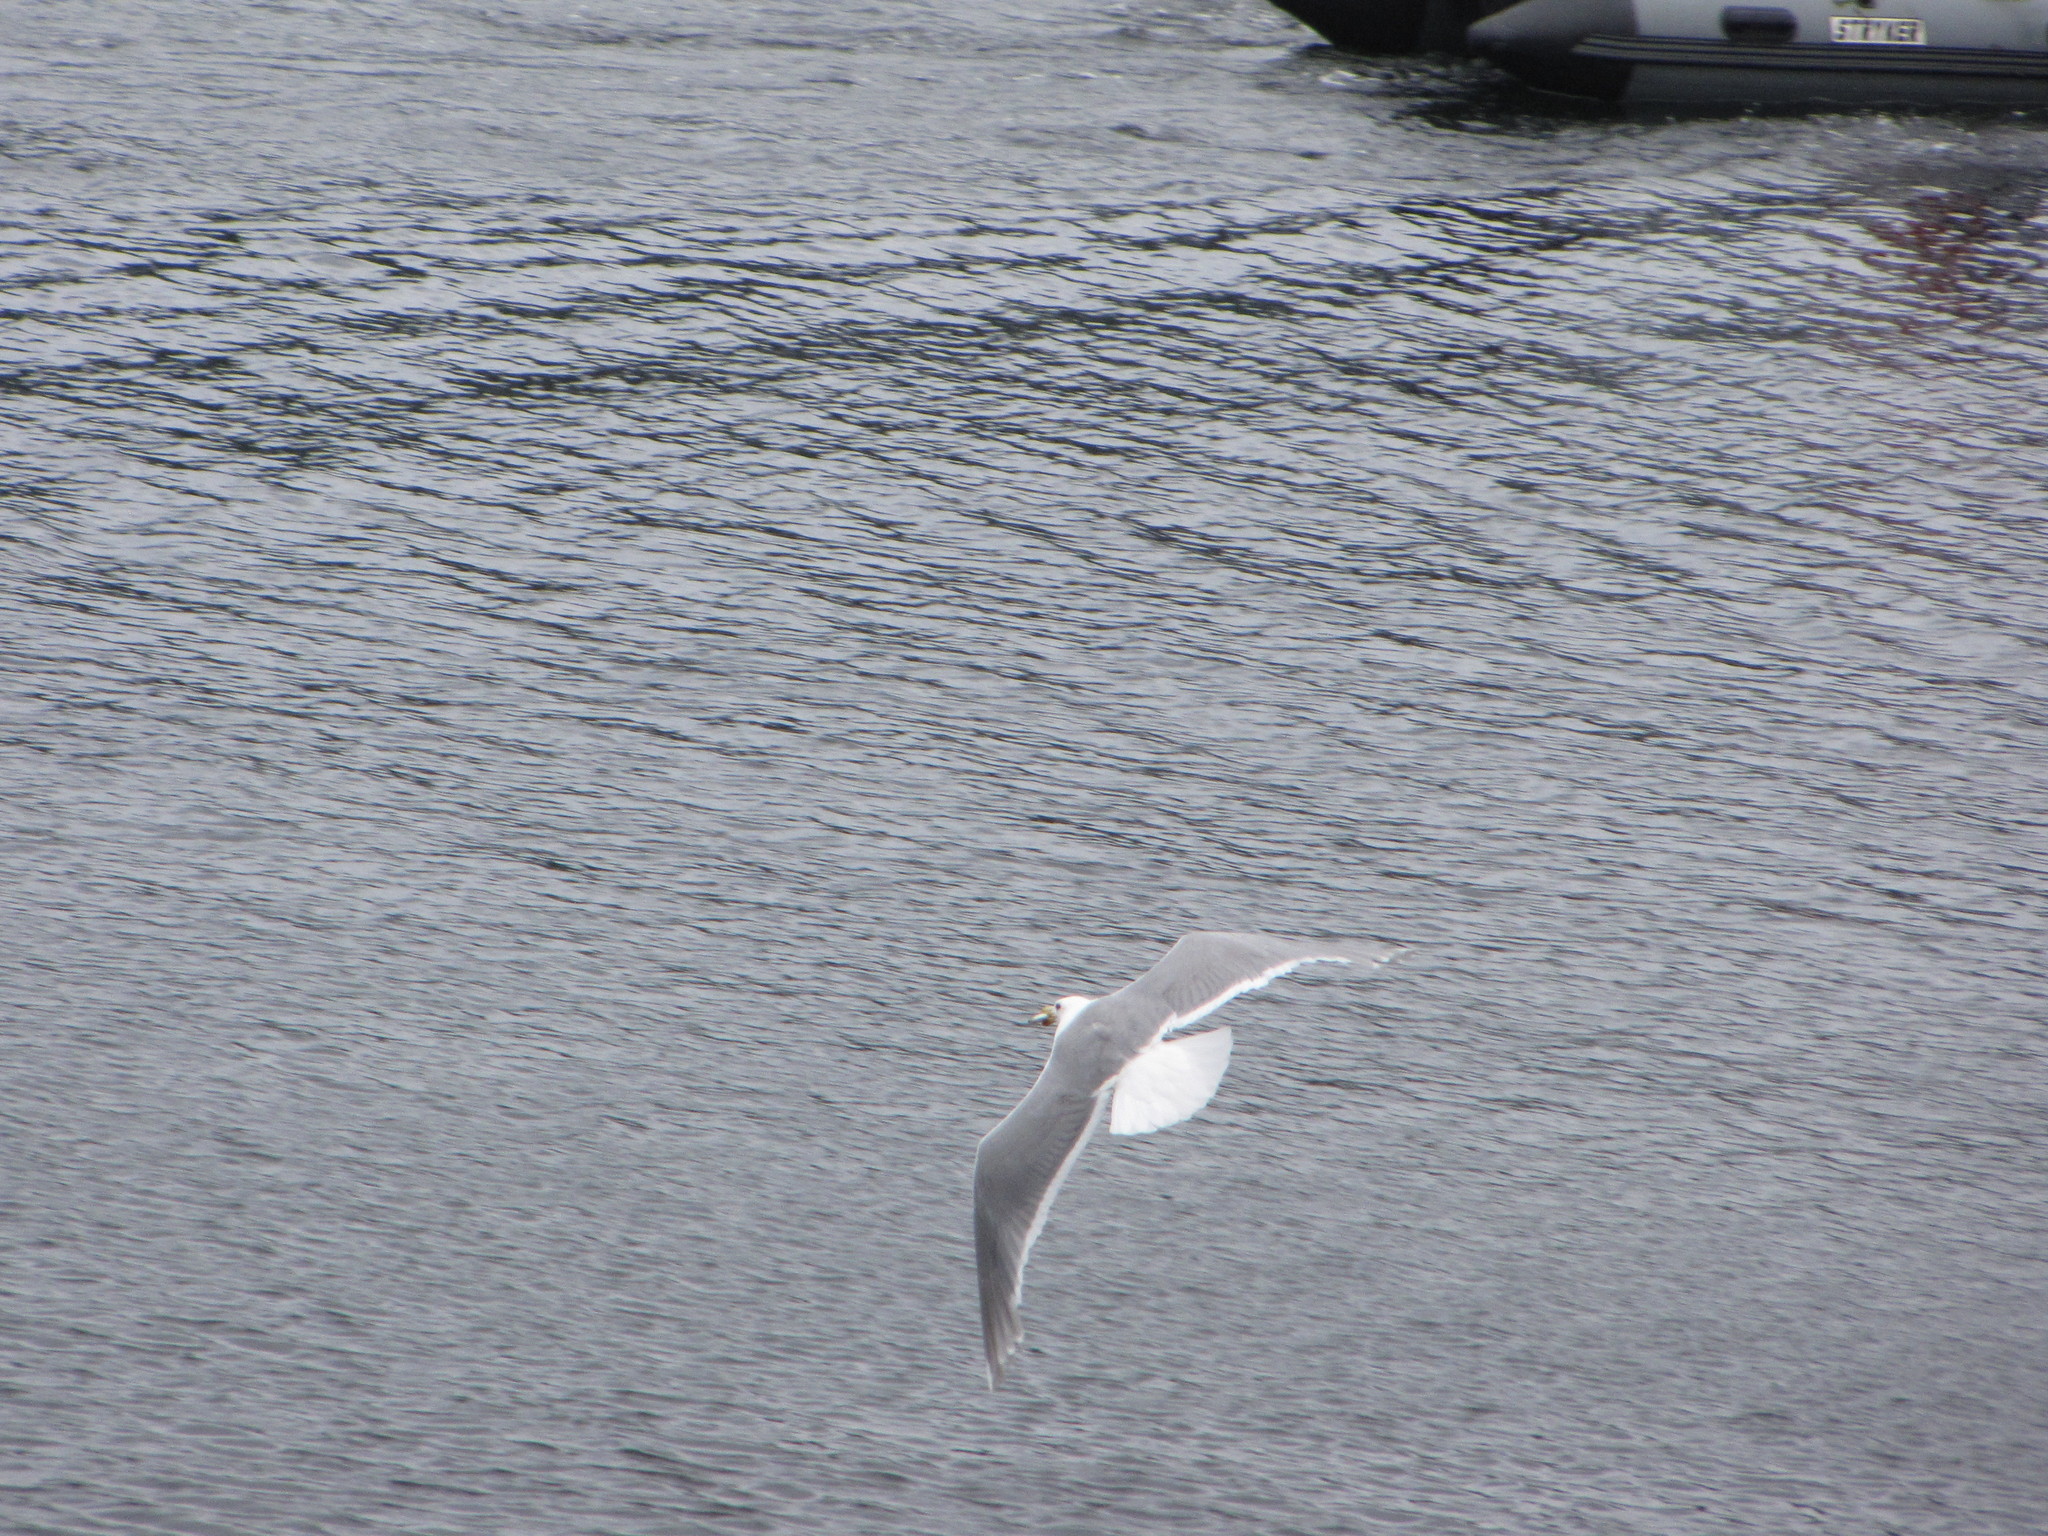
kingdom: Animalia
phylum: Chordata
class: Aves
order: Charadriiformes
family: Laridae
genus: Larus
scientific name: Larus glaucescens
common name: Glaucous-winged gull
